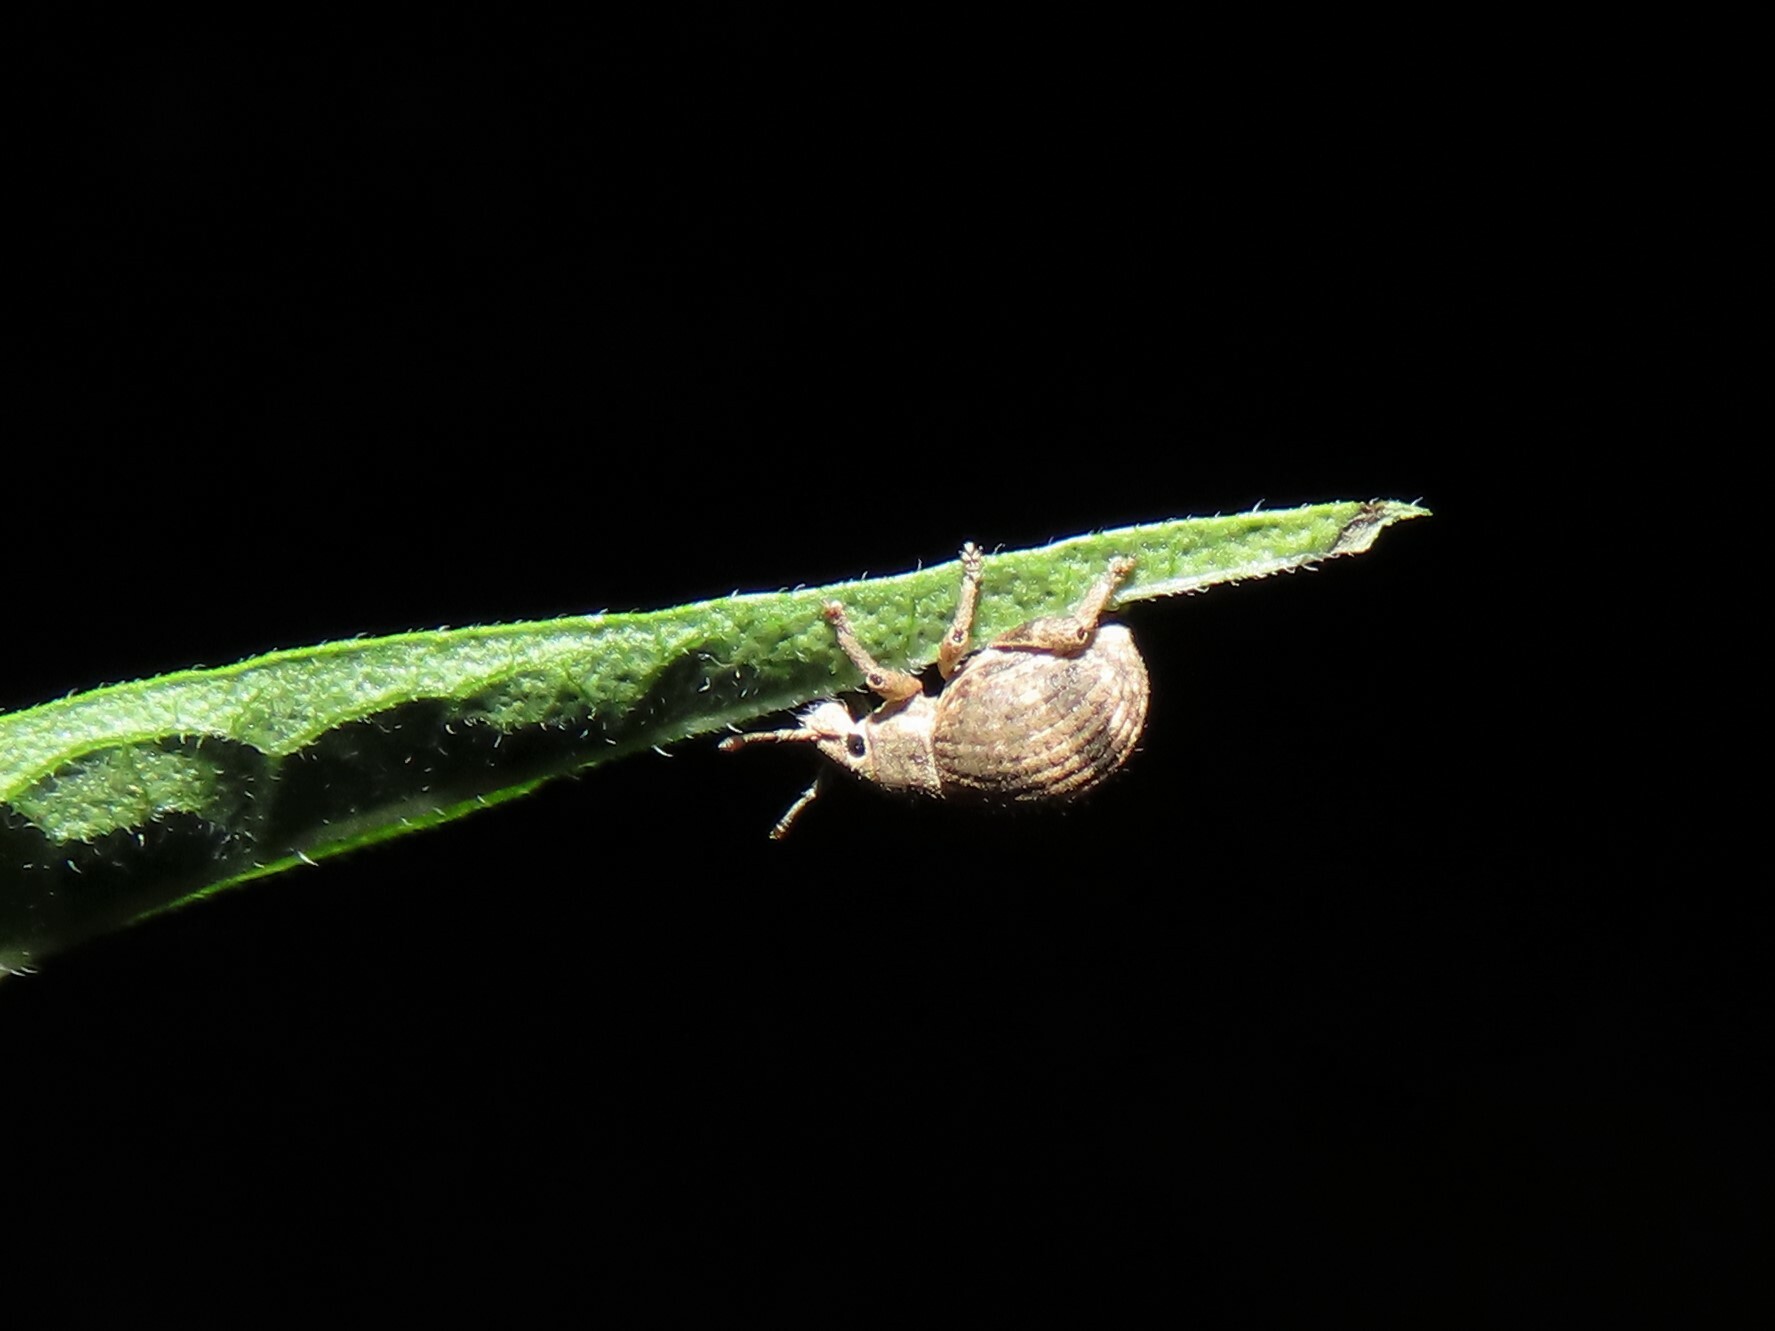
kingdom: Animalia
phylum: Arthropoda
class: Insecta
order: Coleoptera
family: Curculionidae
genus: Pseudocneorhinus
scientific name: Pseudocneorhinus bifasciatus
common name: Two-banded japanese weevil
